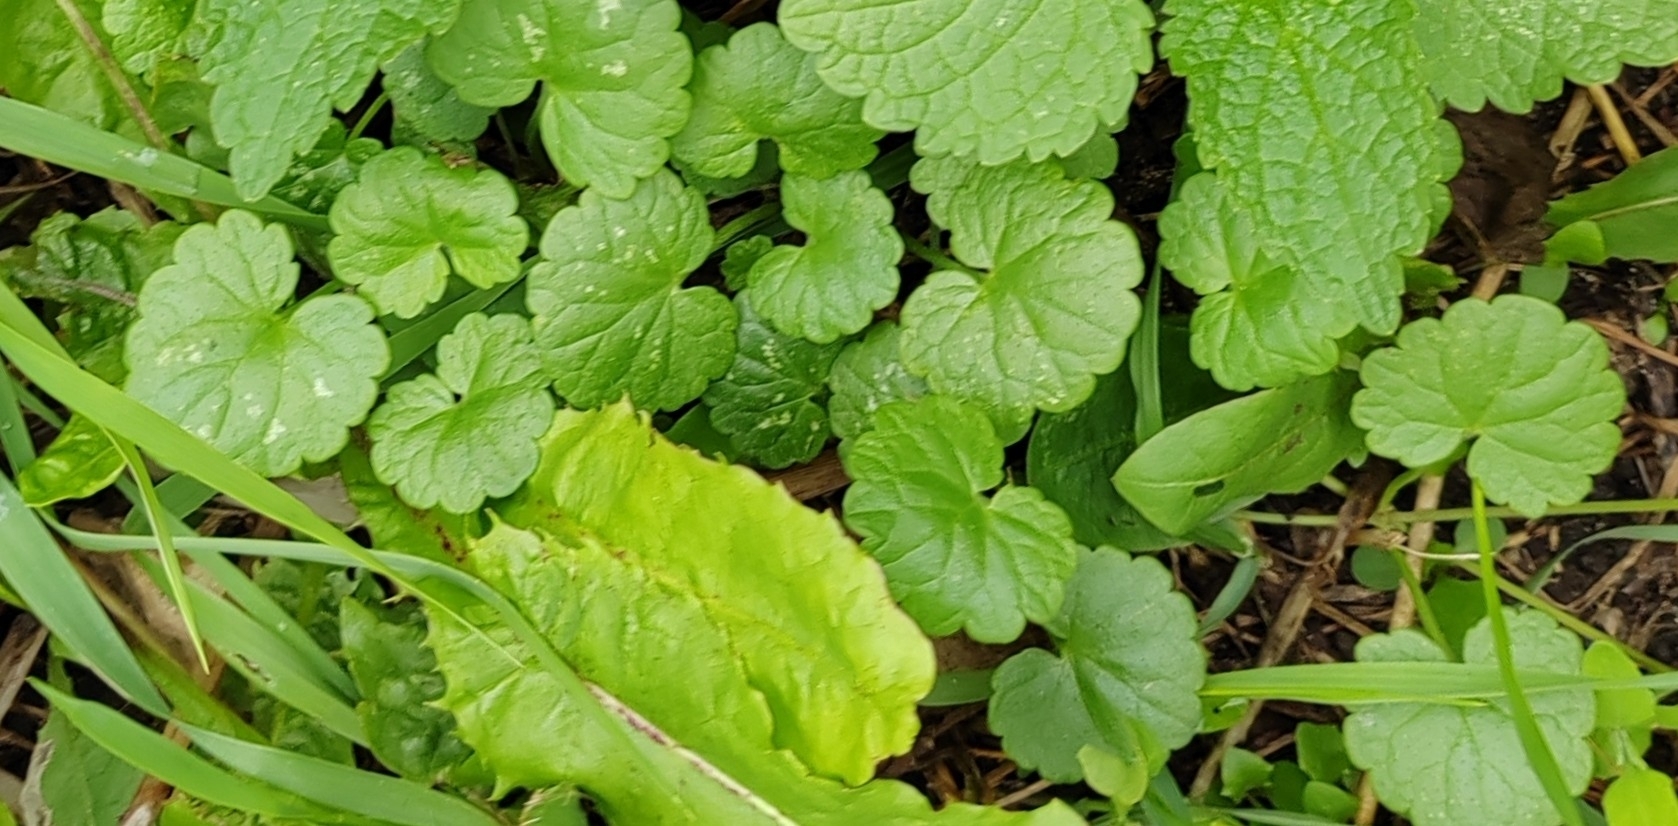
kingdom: Plantae
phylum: Tracheophyta
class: Magnoliopsida
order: Lamiales
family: Lamiaceae
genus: Glechoma
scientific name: Glechoma hederacea
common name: Ground ivy
